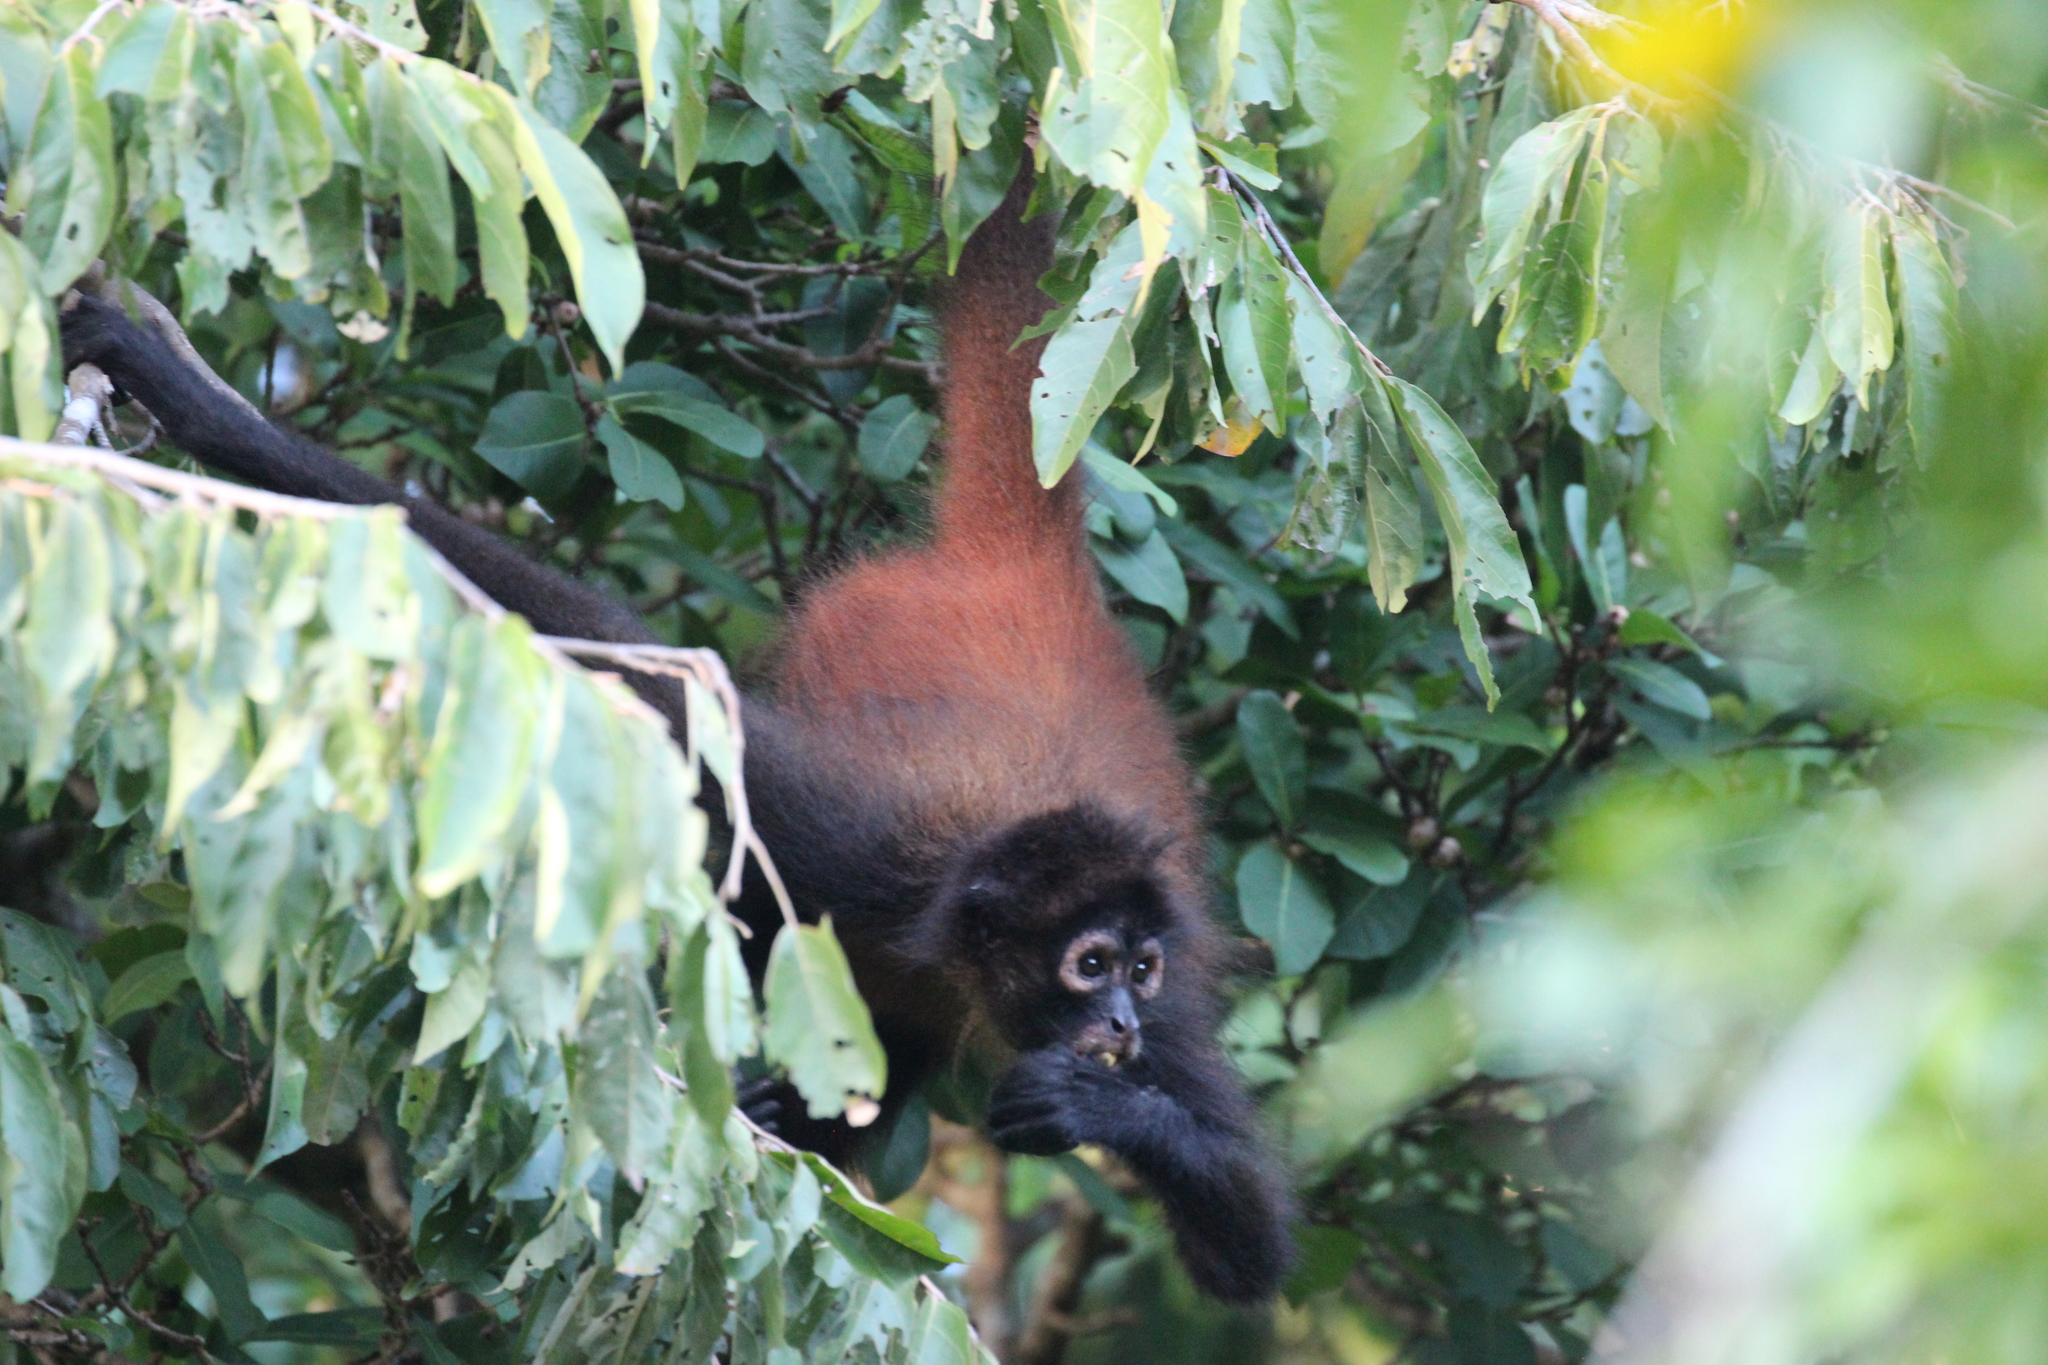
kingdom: Animalia
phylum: Chordata
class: Mammalia
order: Primates
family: Atelidae
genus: Ateles
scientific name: Ateles geoffroyi
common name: Black-handed spider monkey
